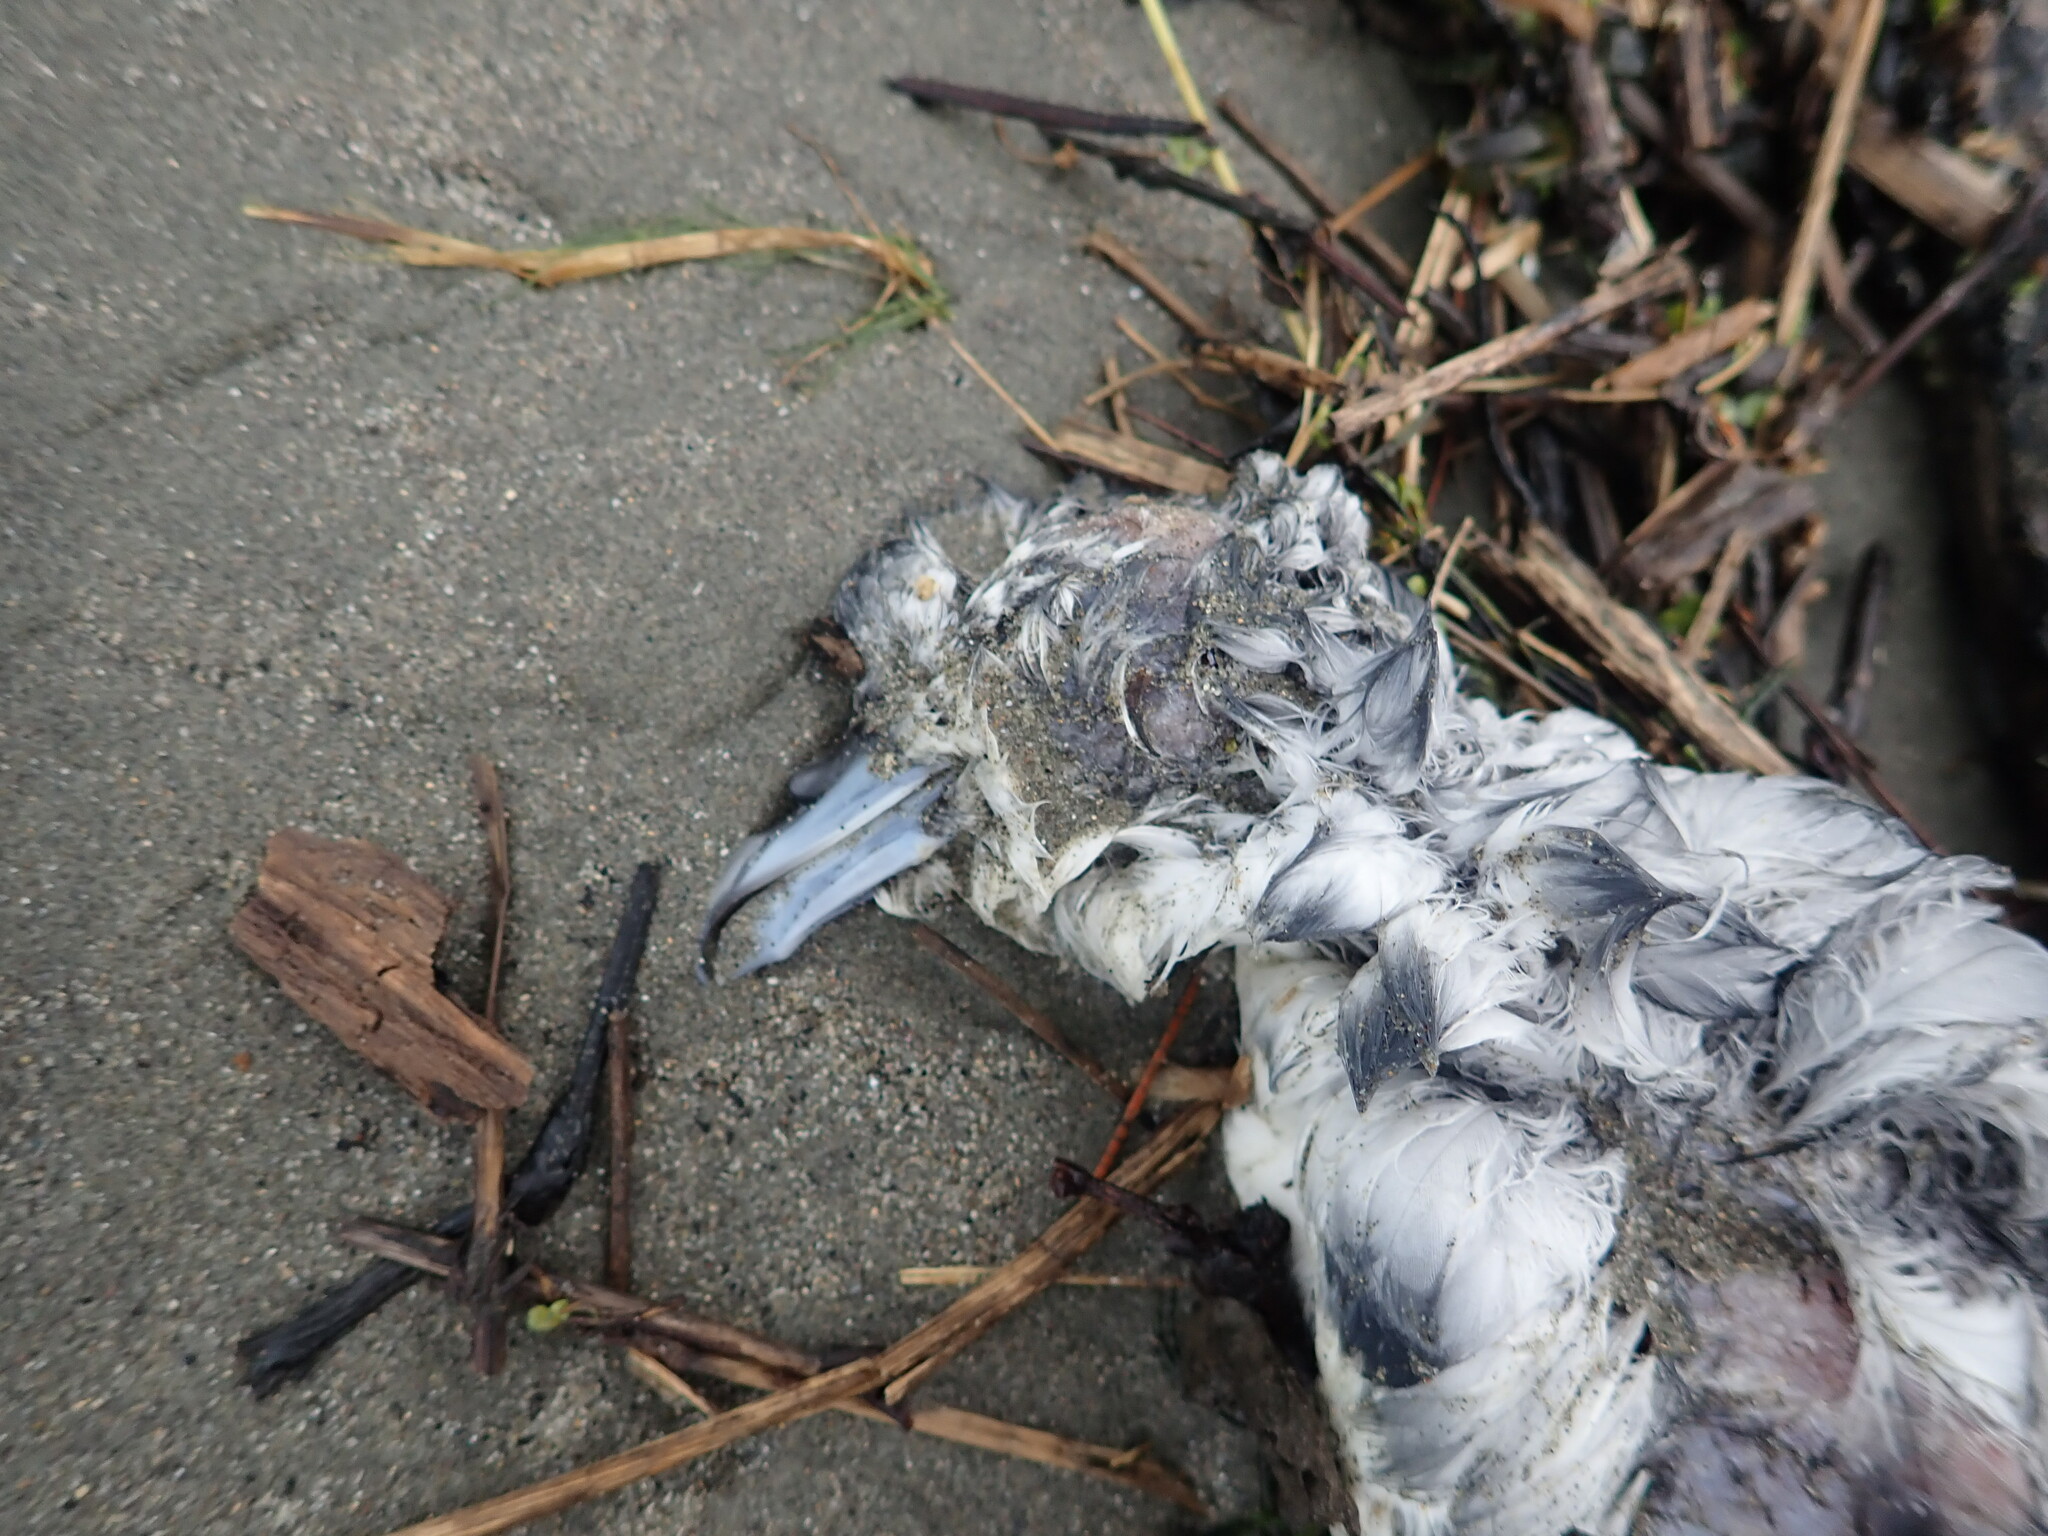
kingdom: Animalia
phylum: Chordata
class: Aves
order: Procellariiformes
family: Procellariidae
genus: Pachyptila
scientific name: Pachyptila turtur
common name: Fairy prion
